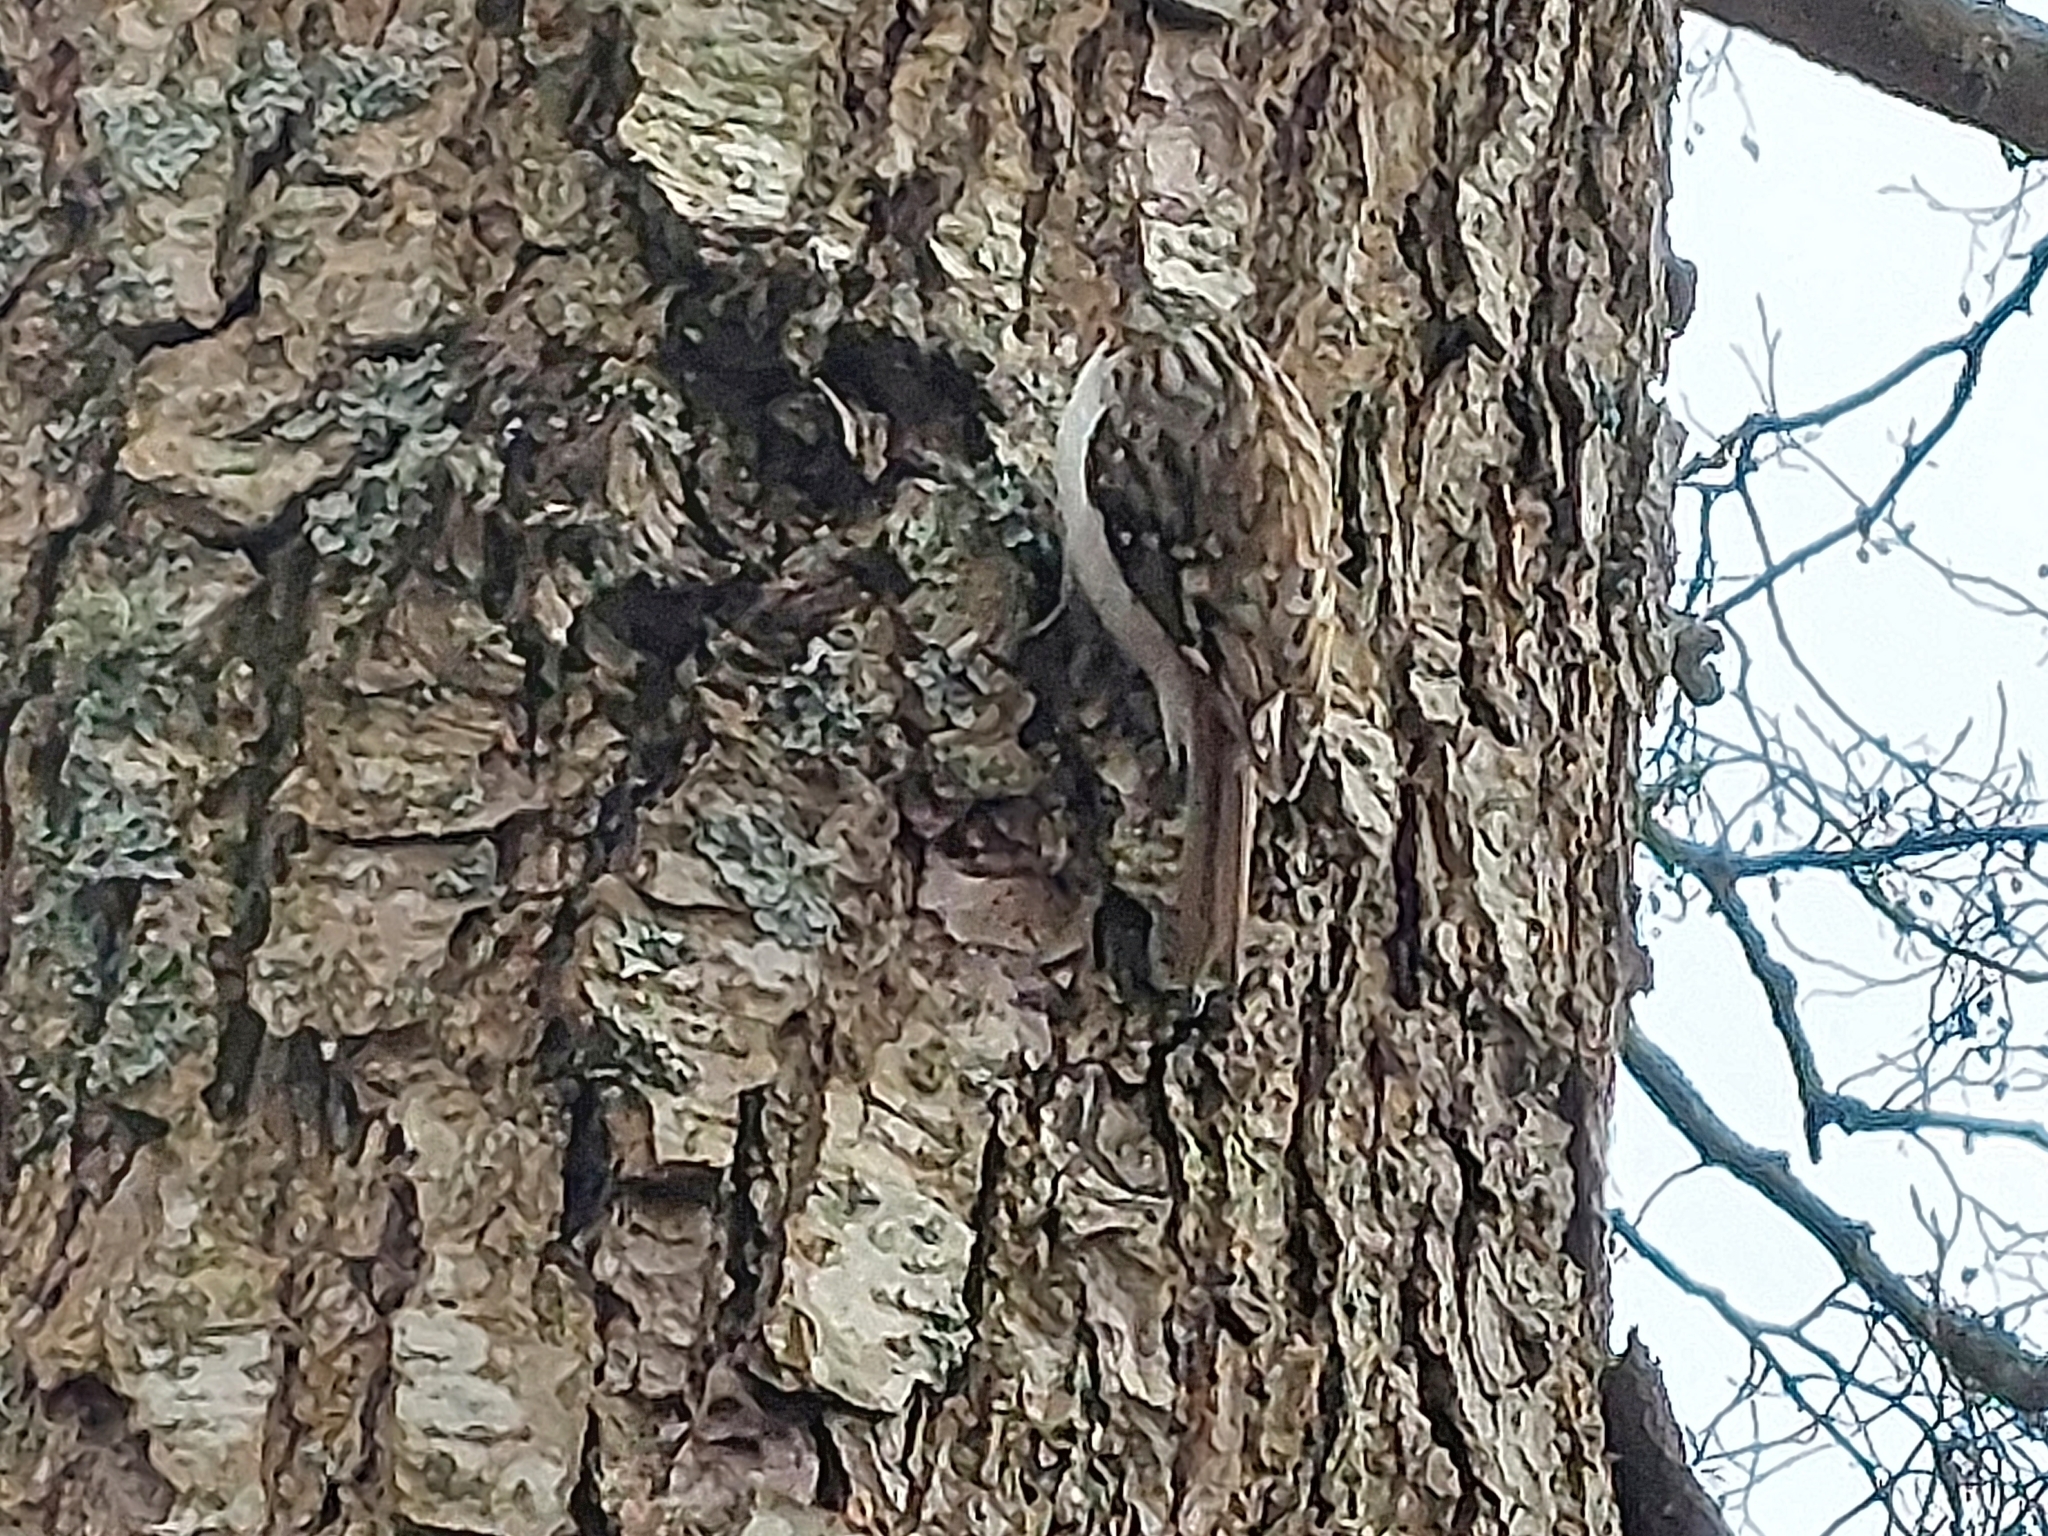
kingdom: Animalia
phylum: Chordata
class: Aves
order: Passeriformes
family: Certhiidae
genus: Certhia
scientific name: Certhia familiaris
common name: Eurasian treecreeper
